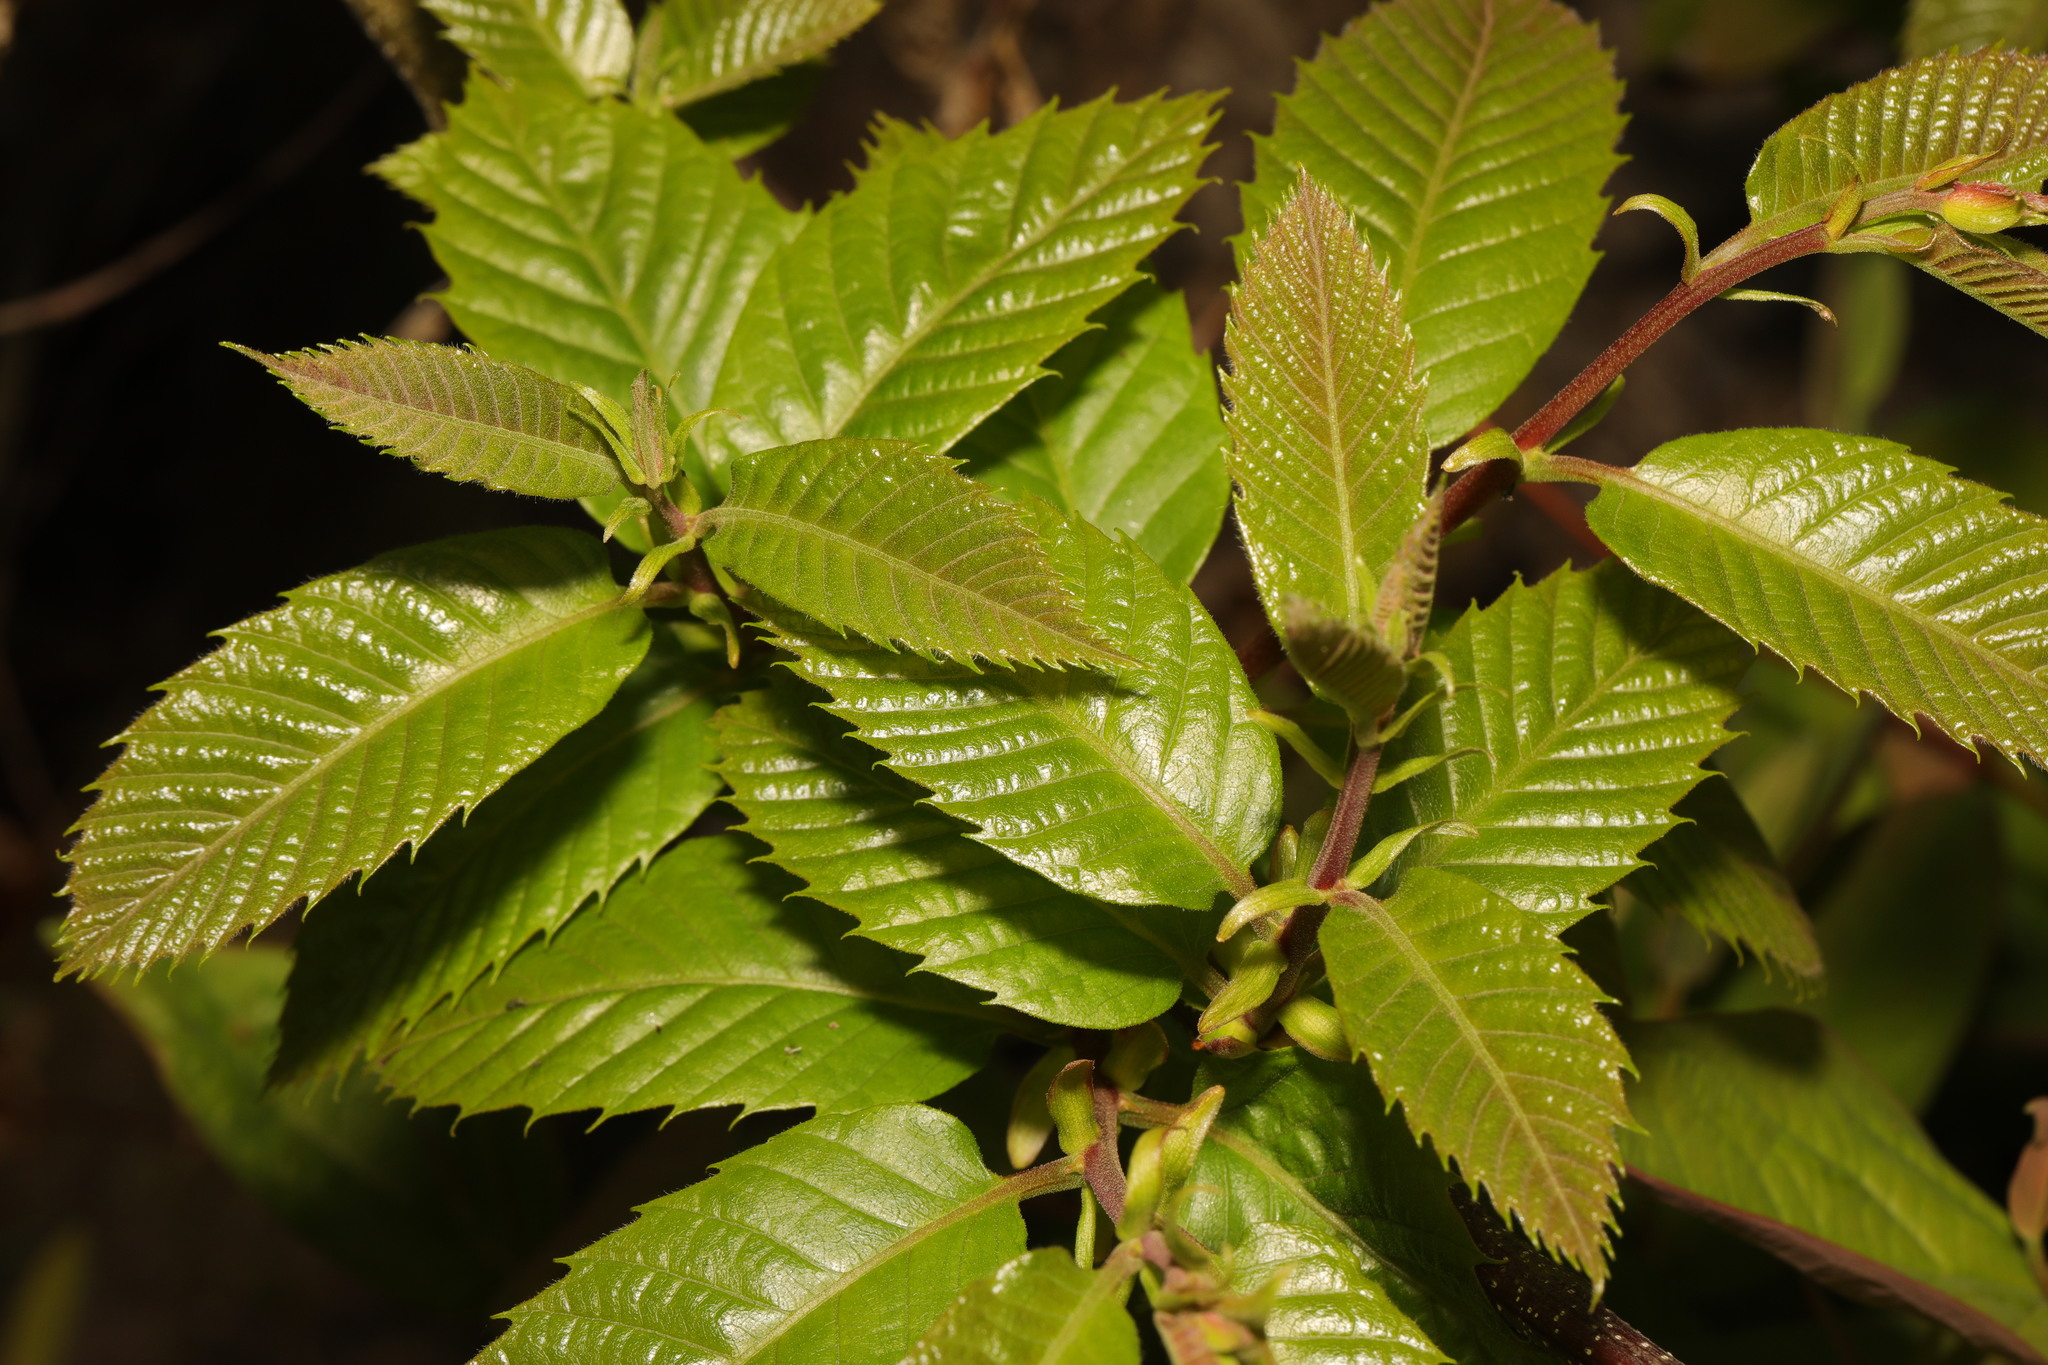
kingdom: Plantae
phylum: Tracheophyta
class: Magnoliopsida
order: Fagales
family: Fagaceae
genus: Castanea
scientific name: Castanea sativa
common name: Sweet chestnut
